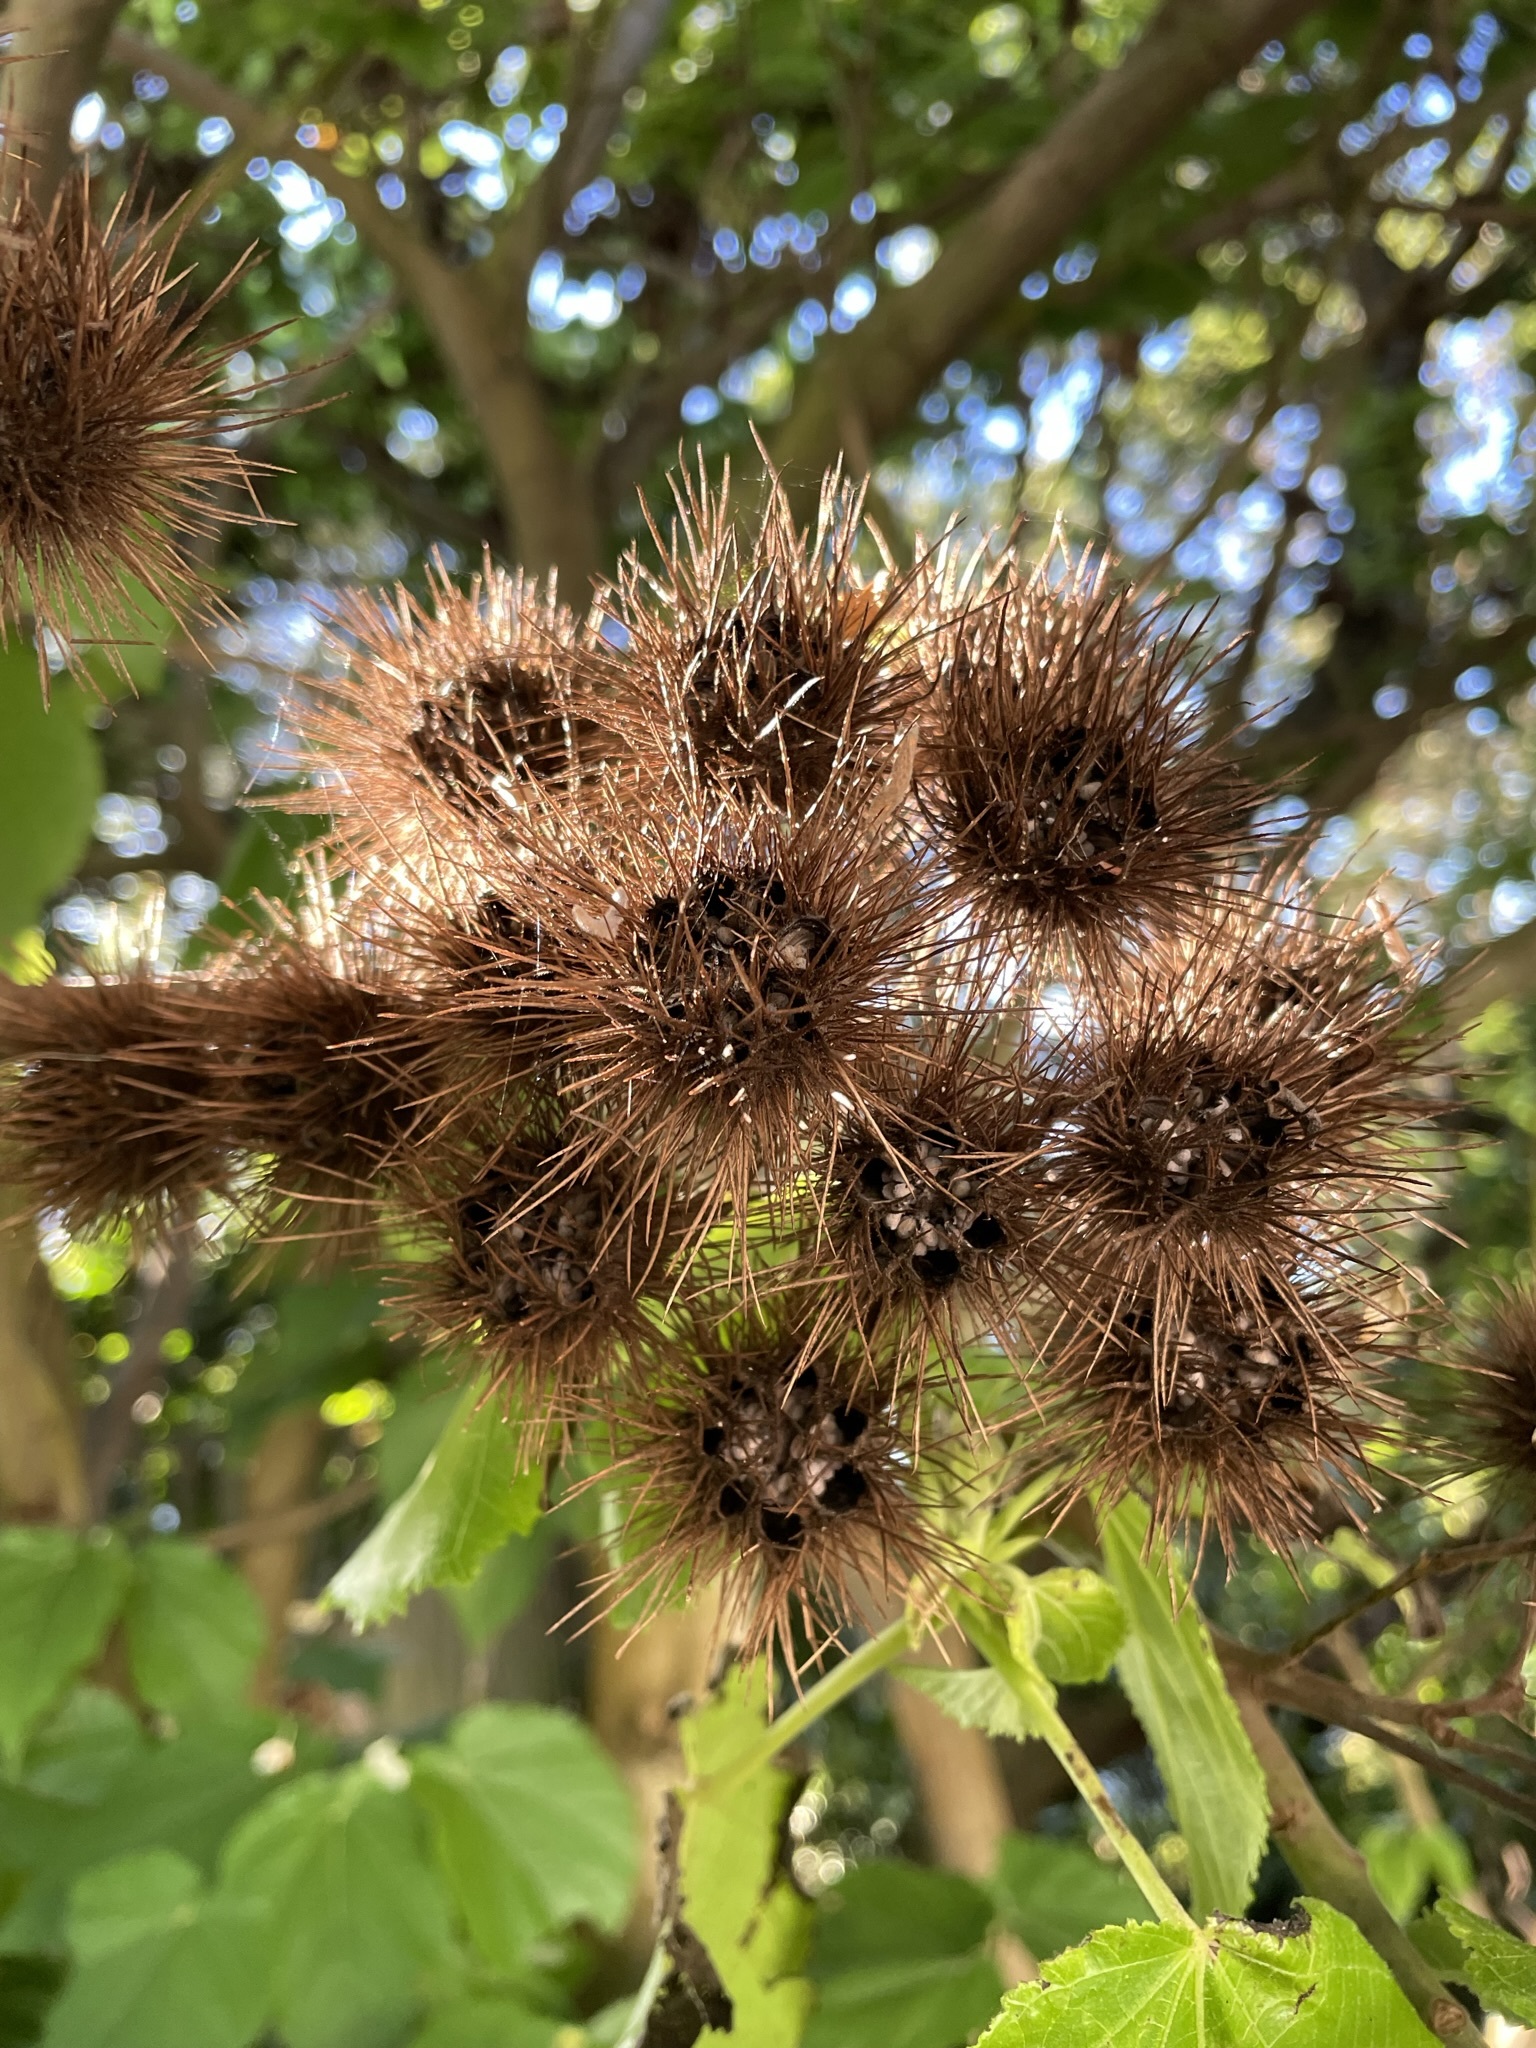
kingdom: Plantae
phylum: Tracheophyta
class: Magnoliopsida
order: Malvales
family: Malvaceae
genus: Entelea
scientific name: Entelea arborescens
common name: New zealand-mulberry
